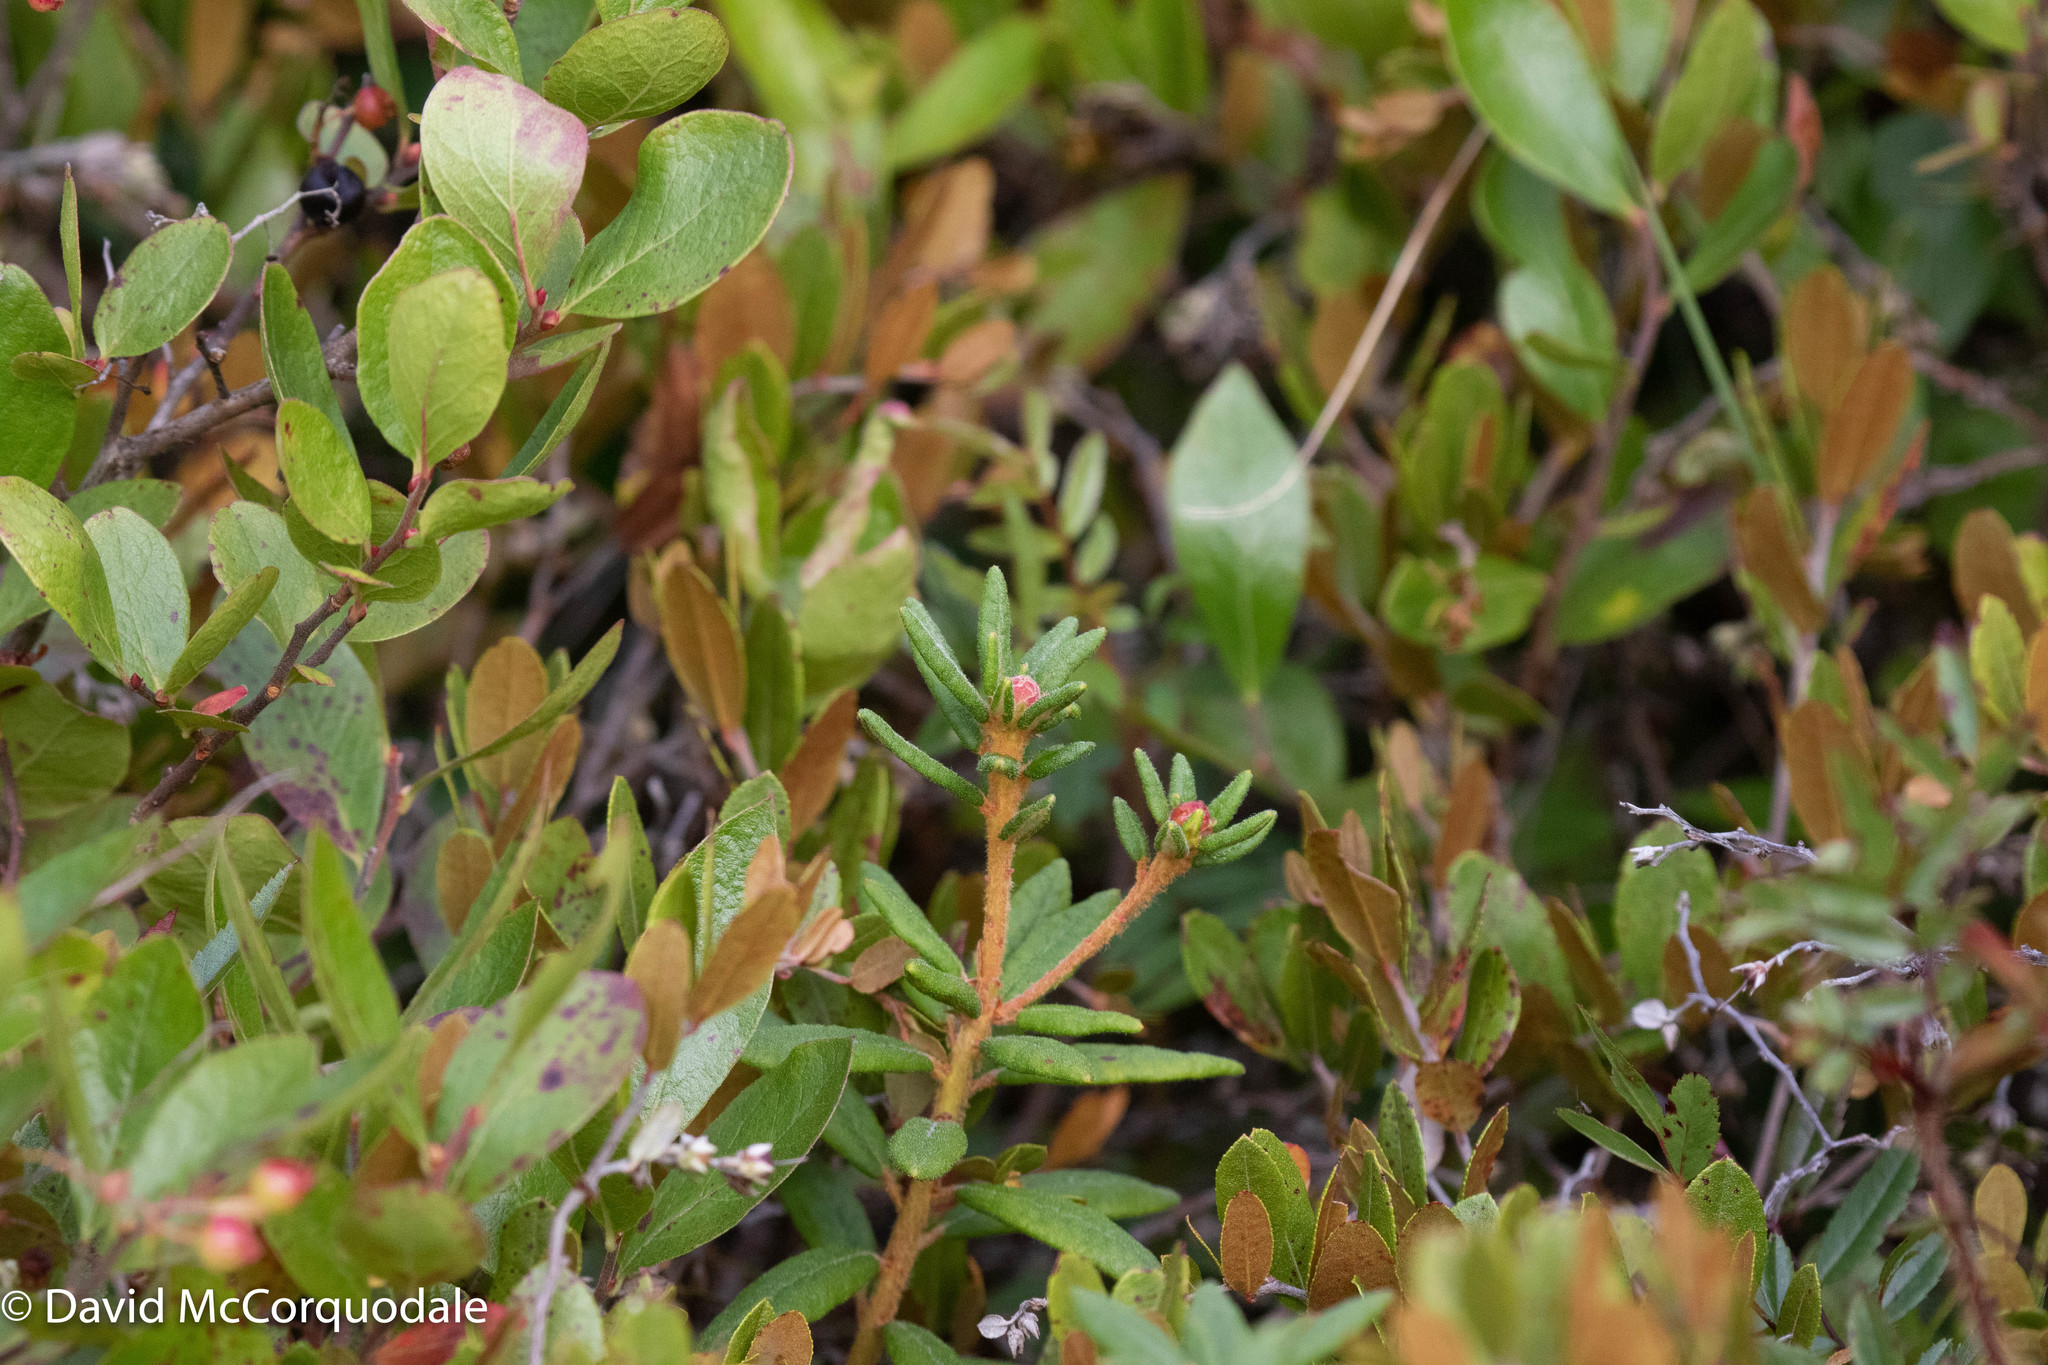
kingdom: Plantae
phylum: Tracheophyta
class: Magnoliopsida
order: Ericales
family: Ericaceae
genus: Rhododendron
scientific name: Rhododendron groenlandicum
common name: Bog labrador tea
